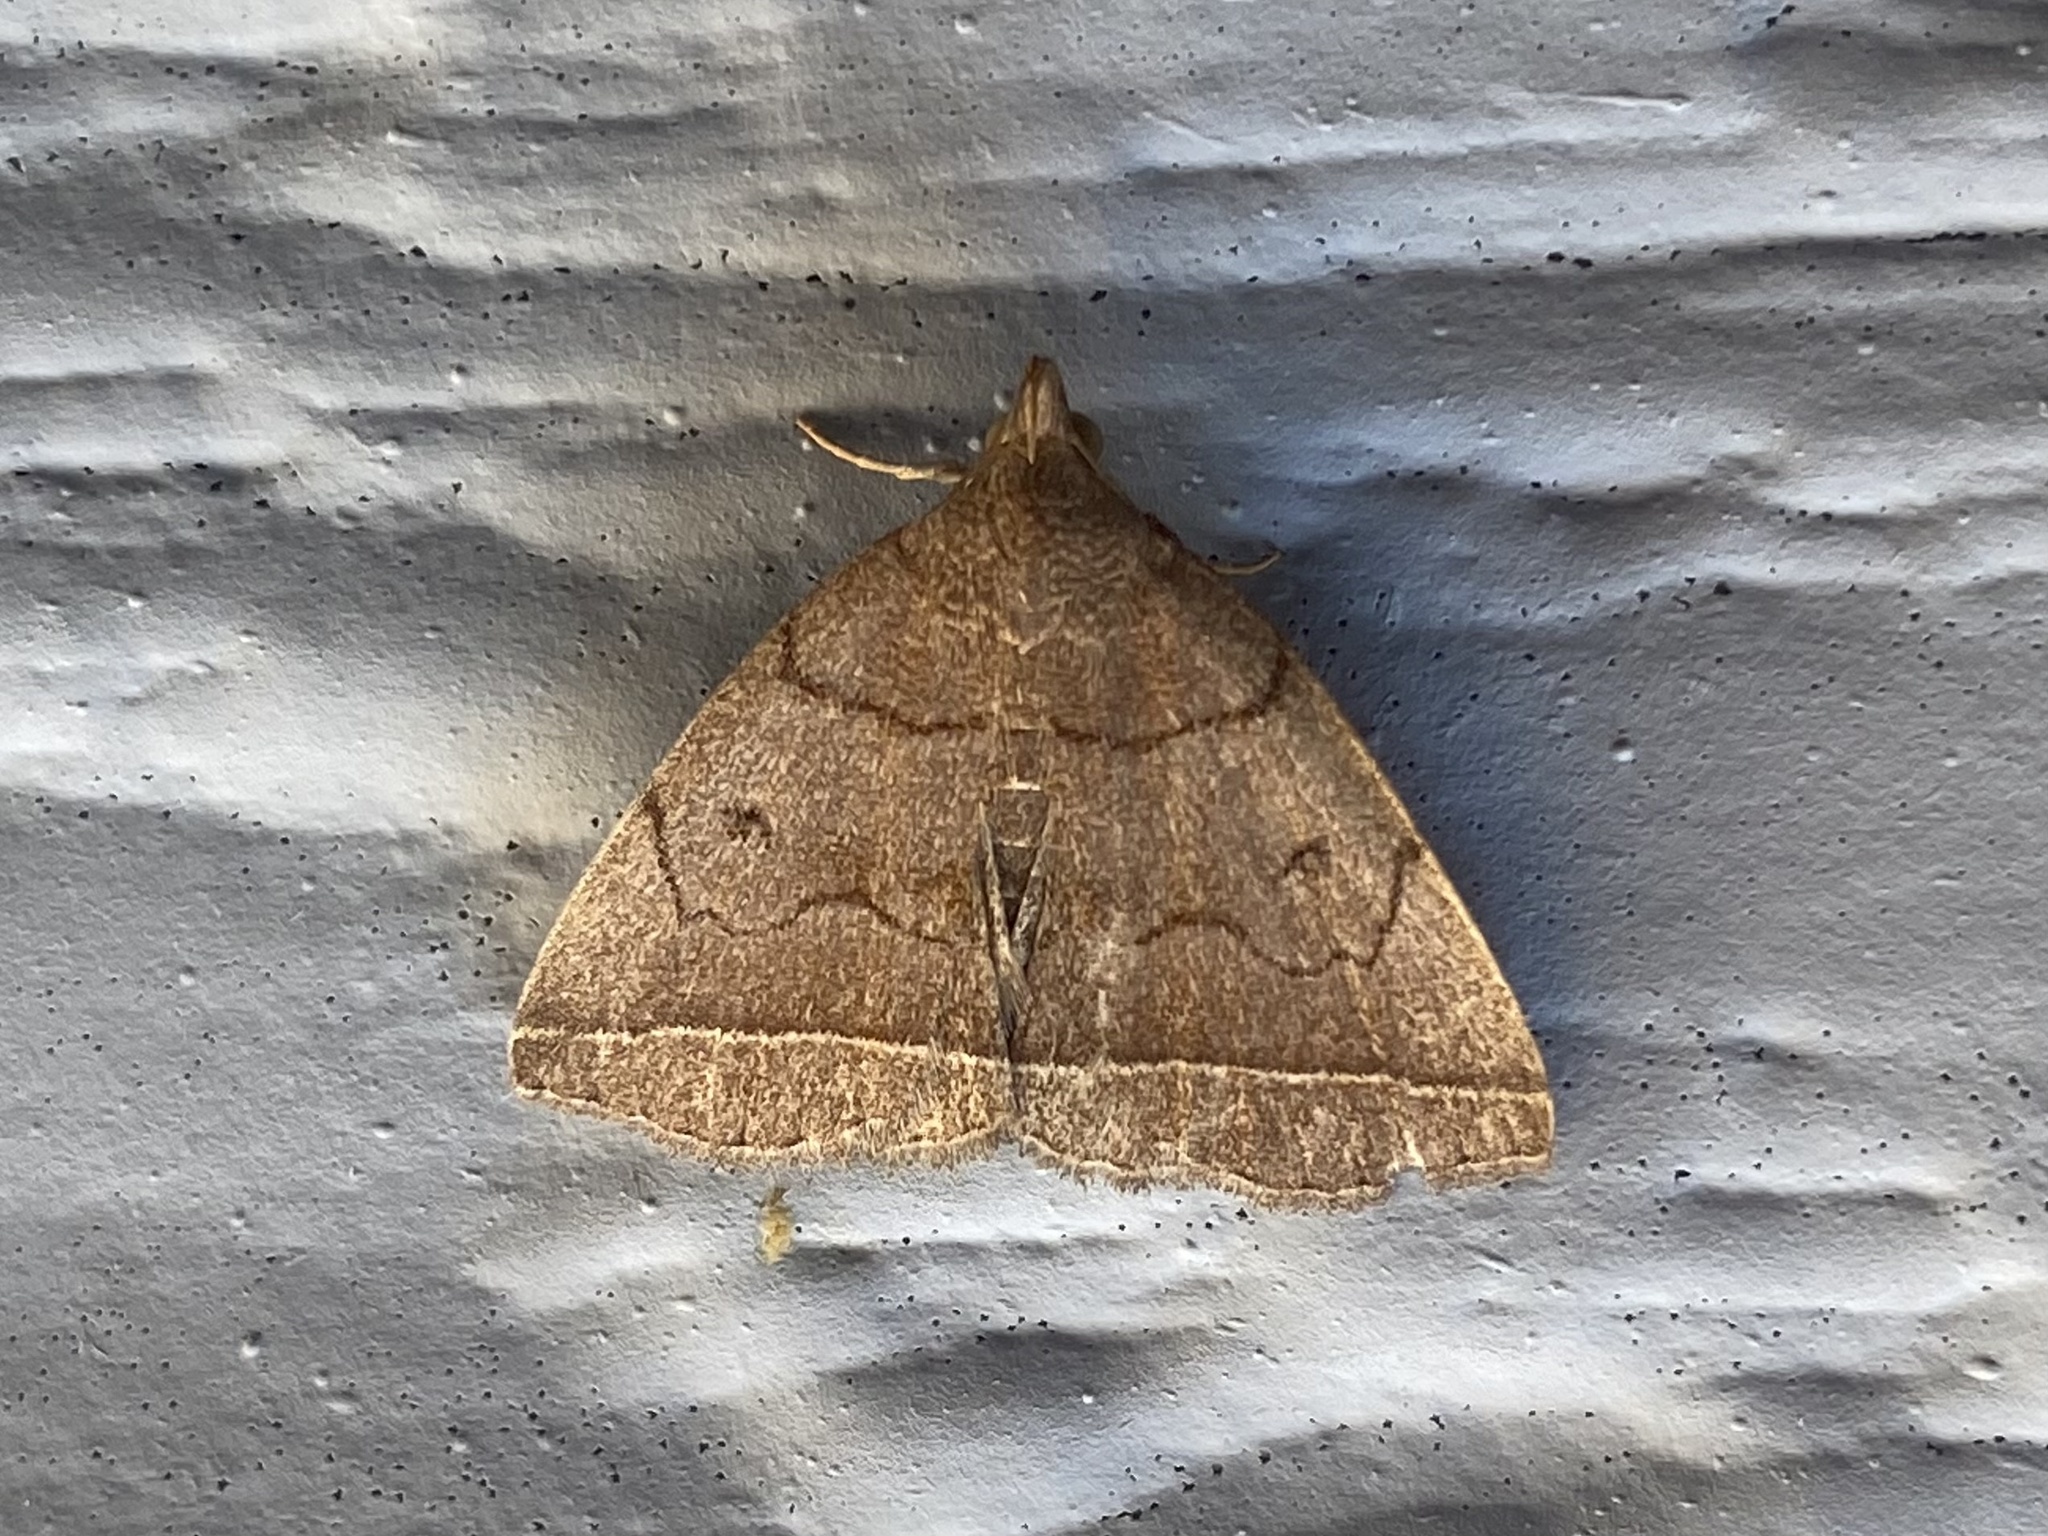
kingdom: Animalia
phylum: Arthropoda
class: Insecta
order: Lepidoptera
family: Erebidae
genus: Zanclognatha
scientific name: Zanclognatha obscuripennis
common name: Dark fan-foot
